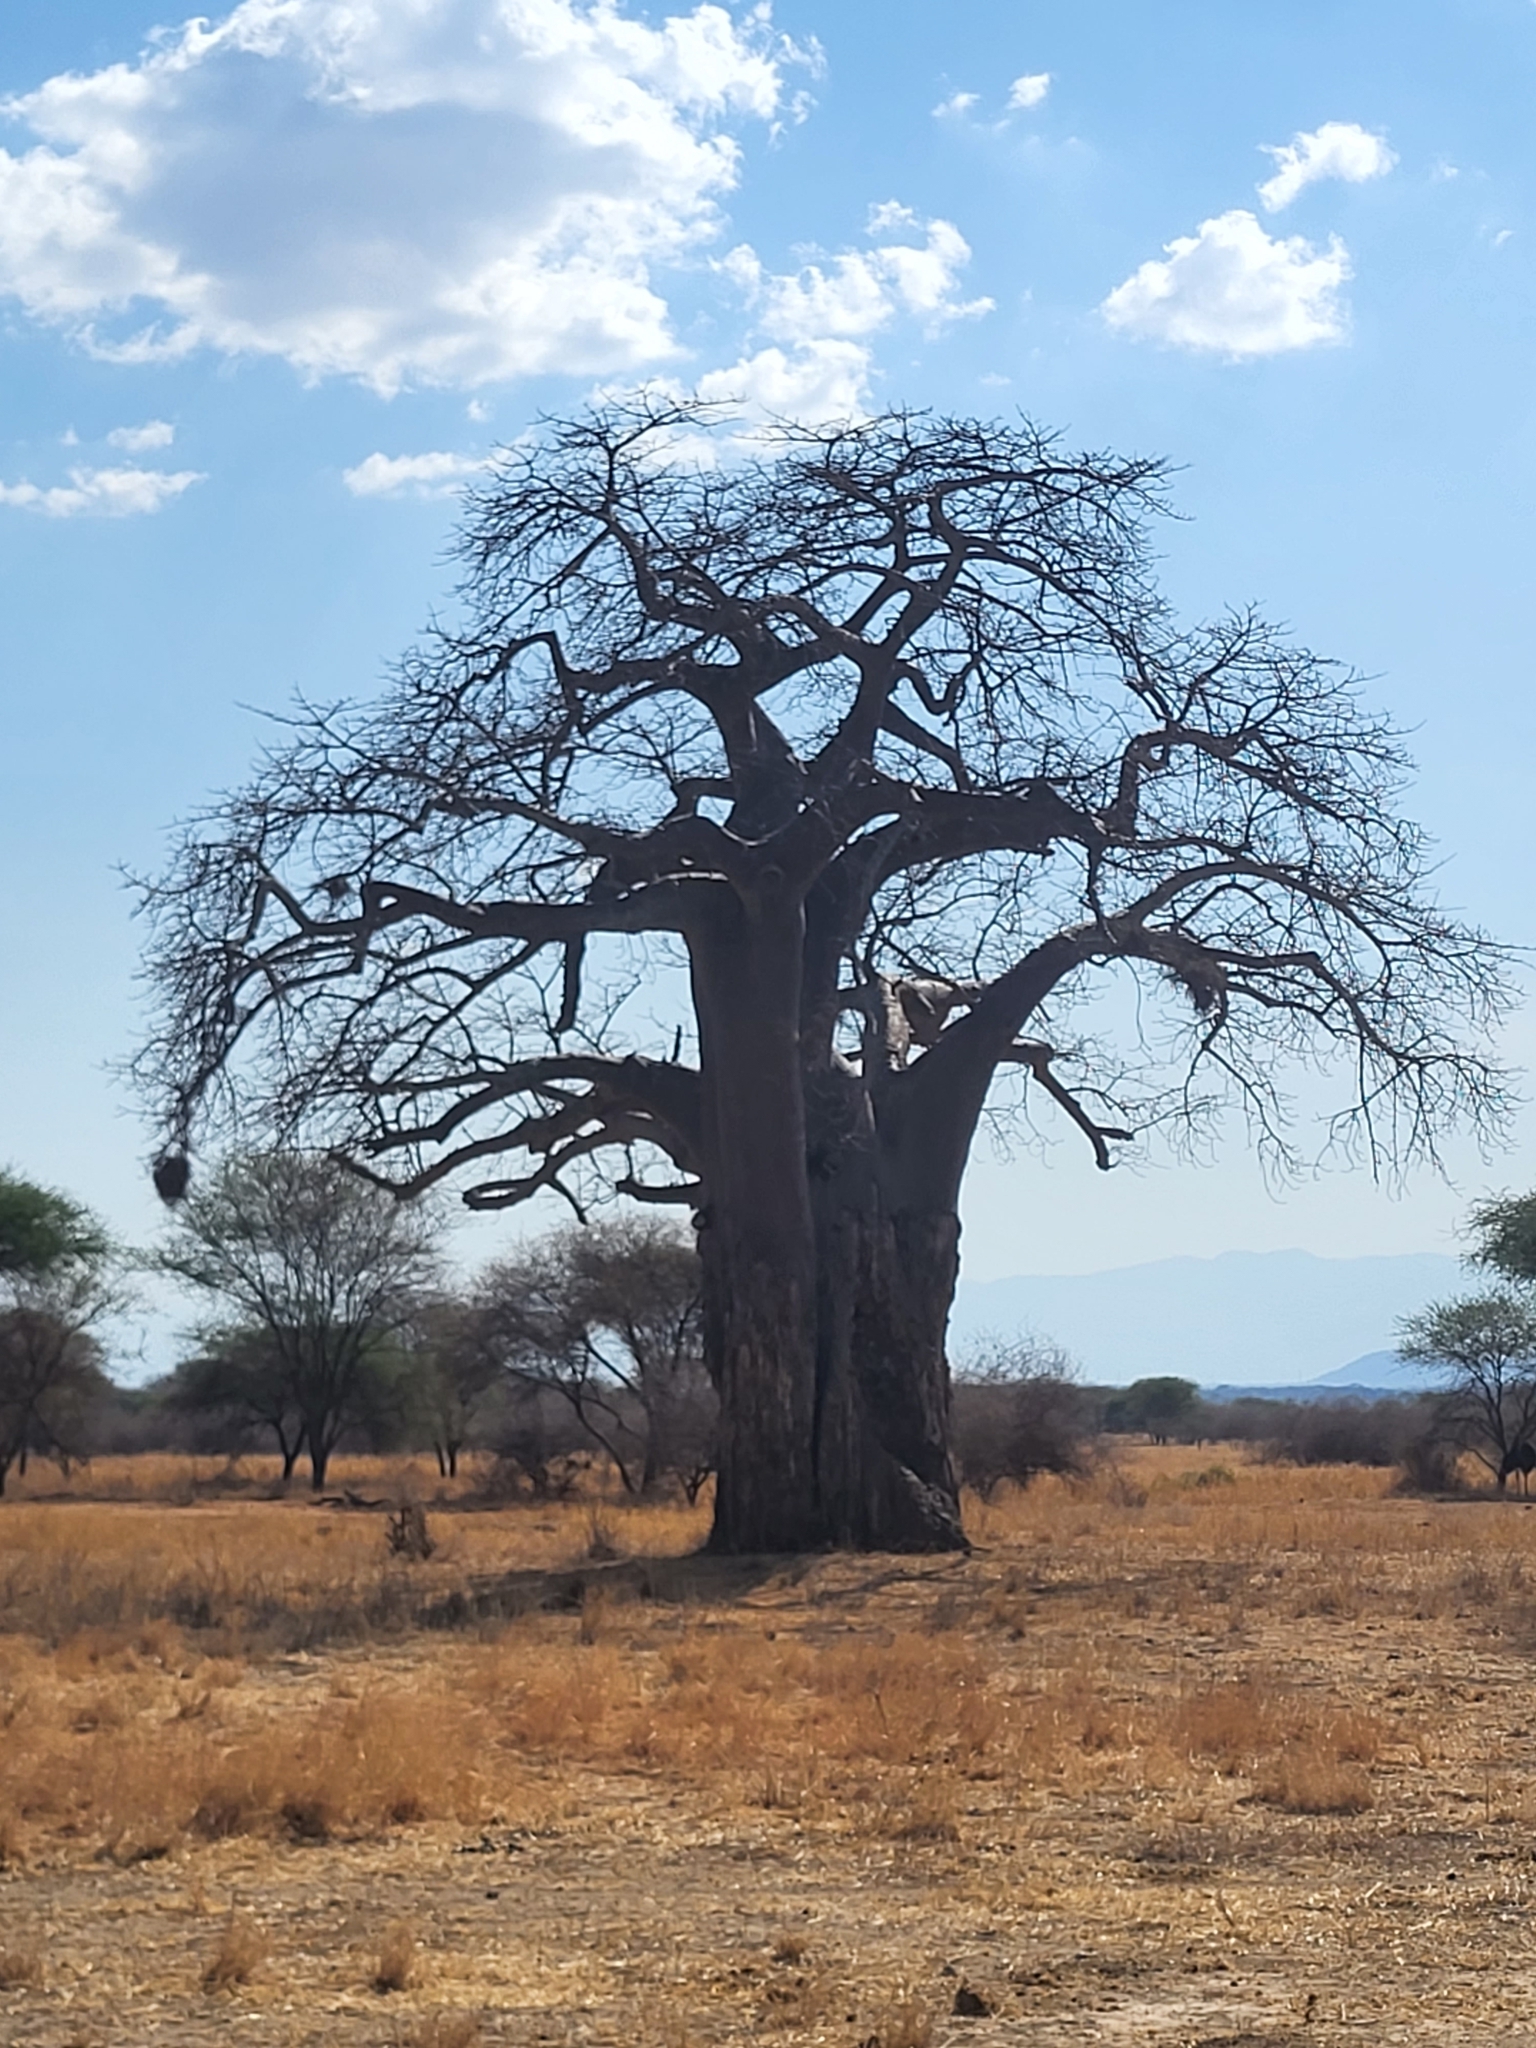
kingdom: Plantae
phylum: Tracheophyta
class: Magnoliopsida
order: Malvales
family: Malvaceae
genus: Adansonia
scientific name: Adansonia digitata
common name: Dead-rat-tree
